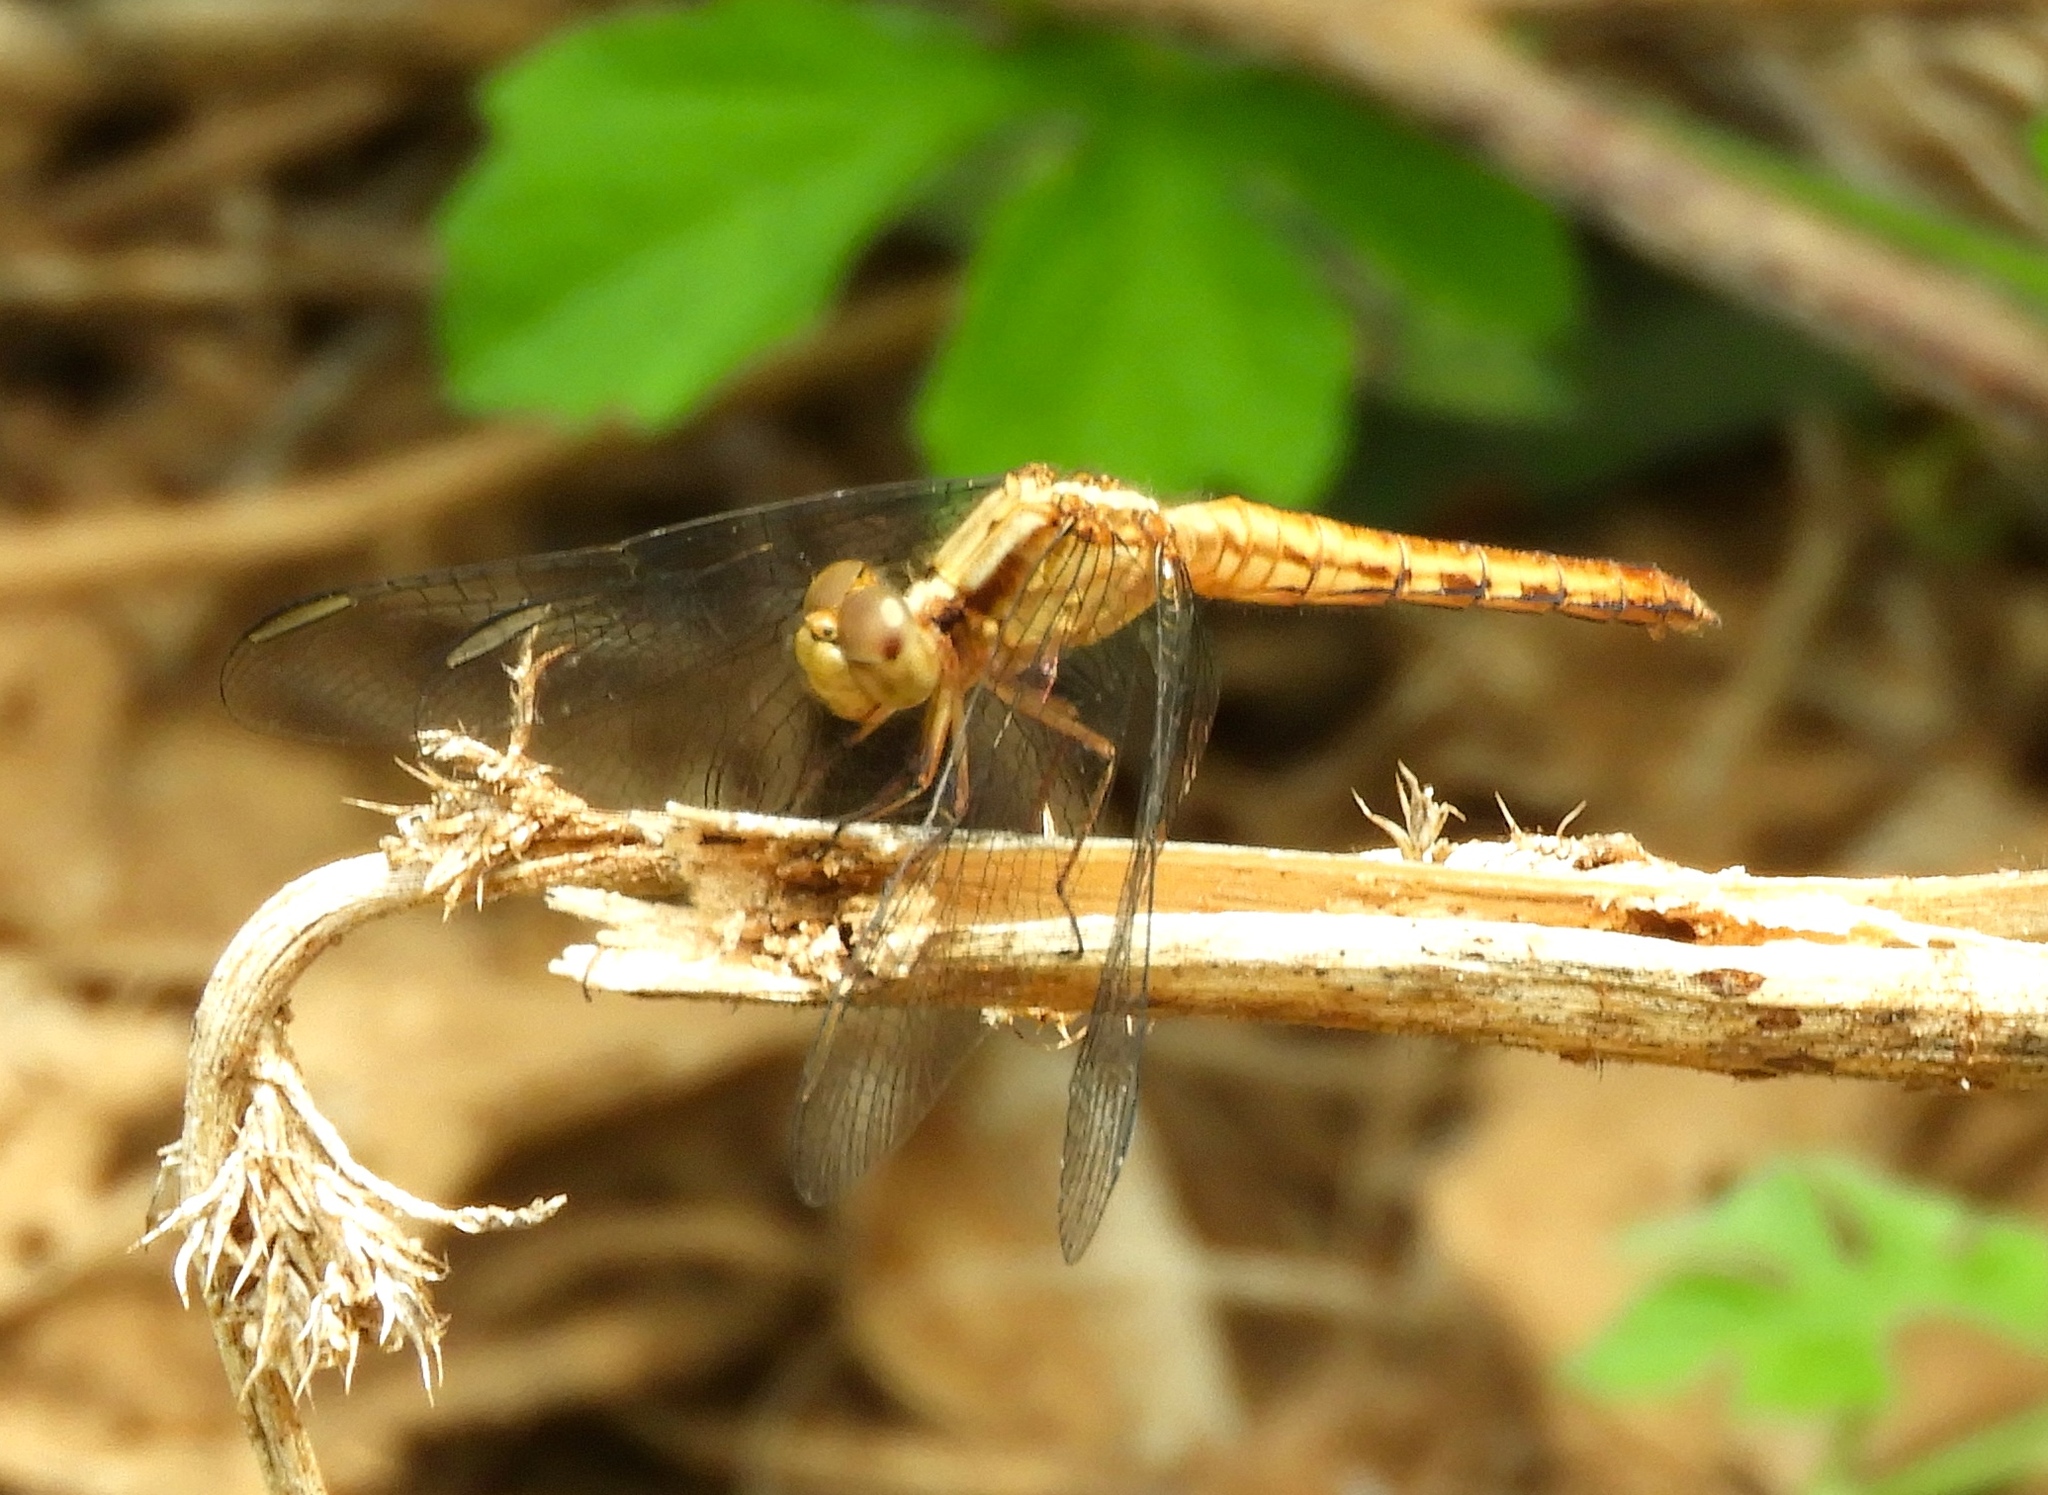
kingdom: Animalia
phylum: Arthropoda
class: Insecta
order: Odonata
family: Libellulidae
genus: Erythrodiplax
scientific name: Erythrodiplax basifusca
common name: Plateau dragonlet
